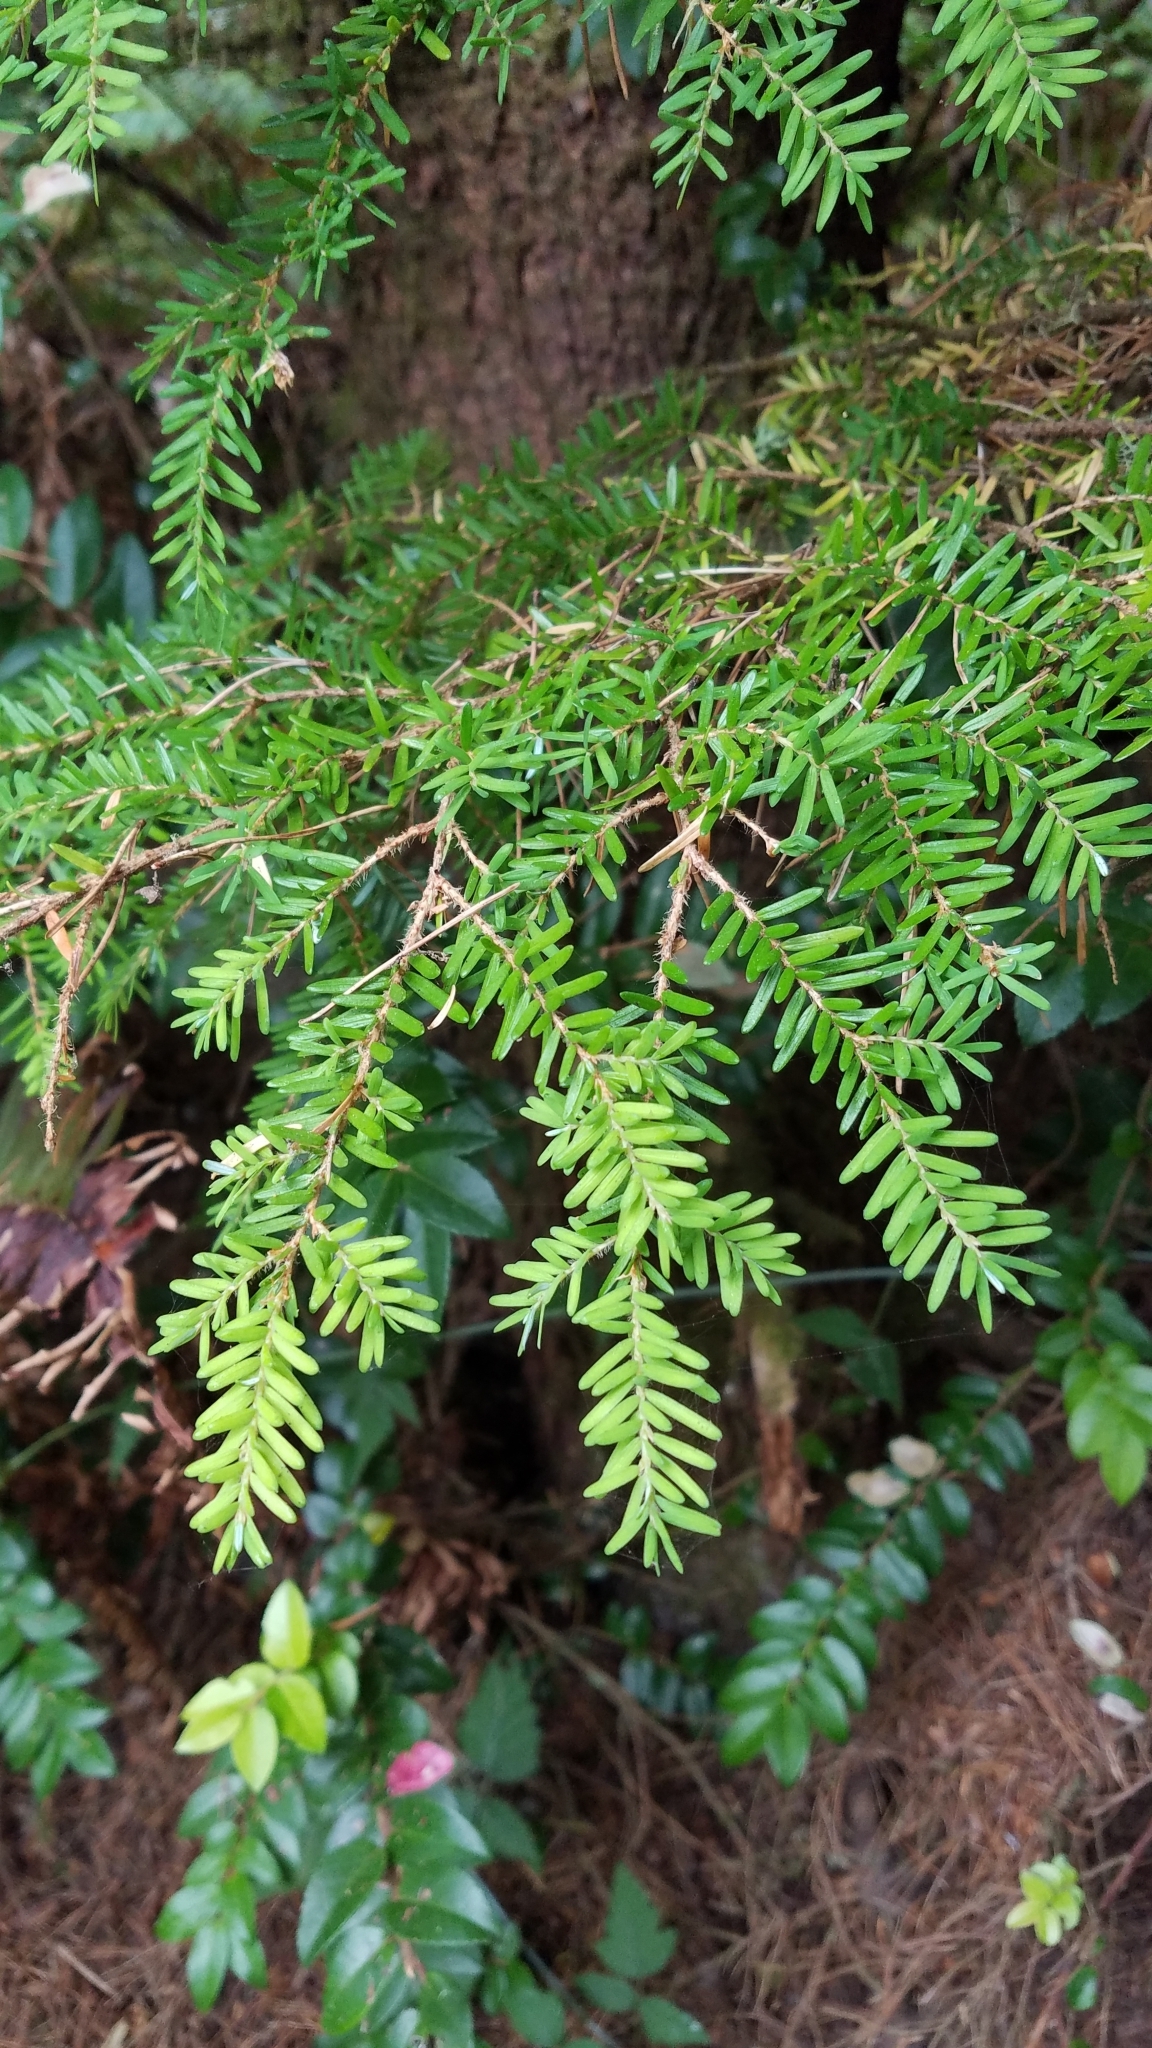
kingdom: Plantae
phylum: Tracheophyta
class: Pinopsida
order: Pinales
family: Pinaceae
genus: Tsuga
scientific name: Tsuga heterophylla
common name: Western hemlock
